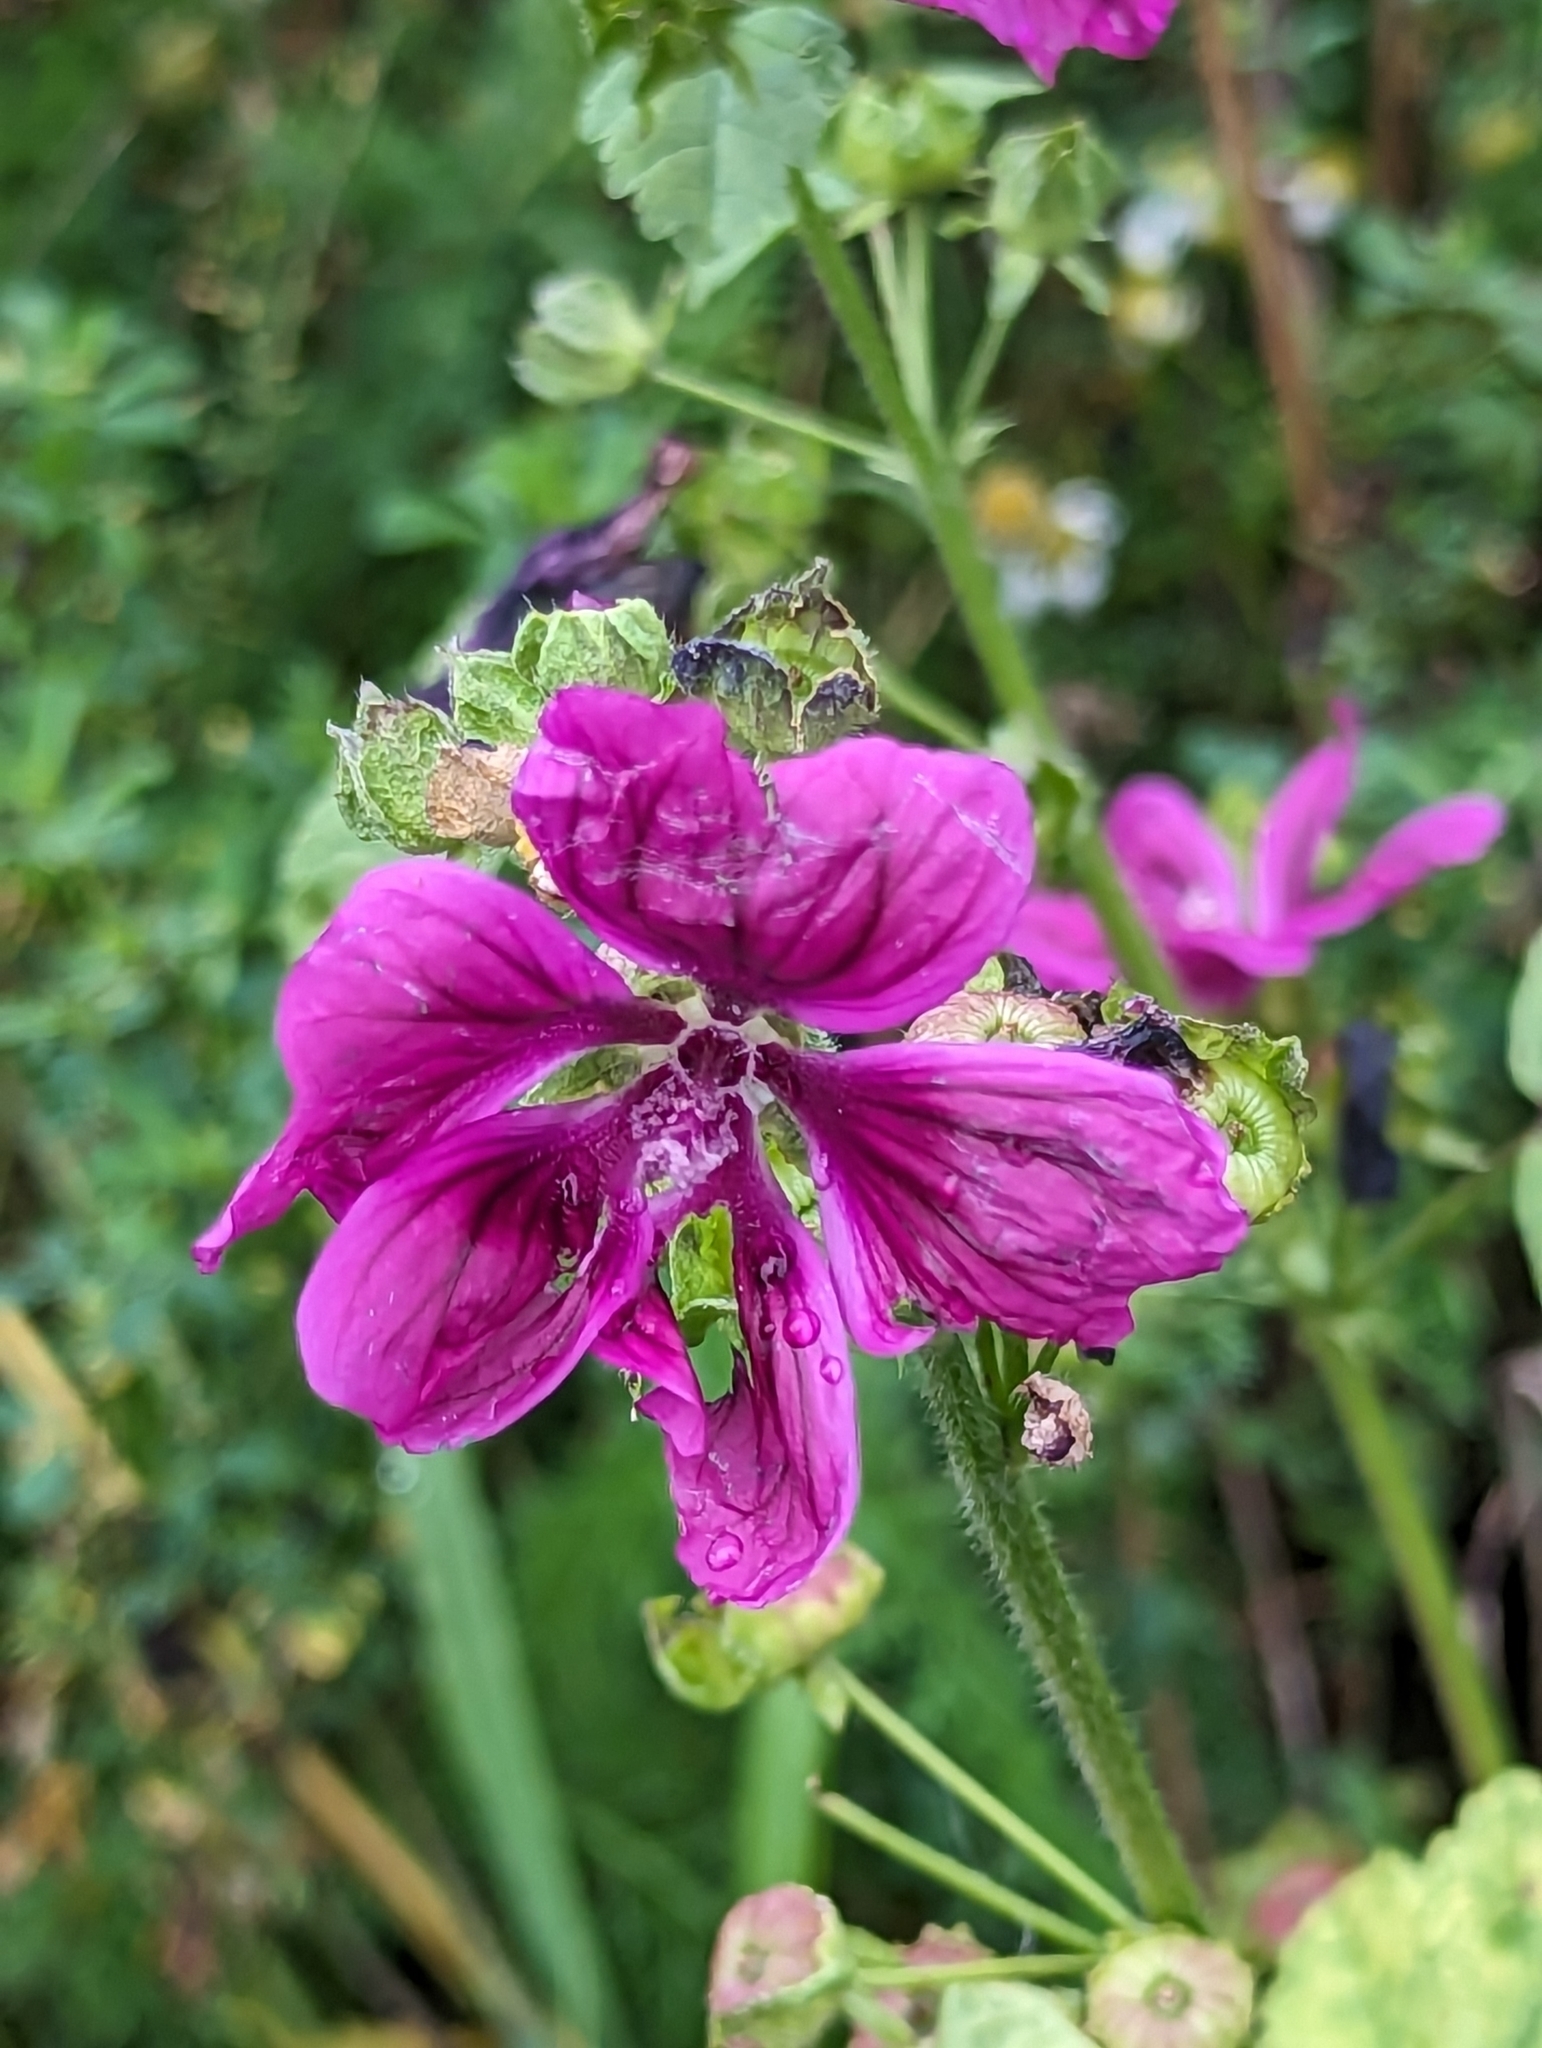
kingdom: Plantae
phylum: Tracheophyta
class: Magnoliopsida
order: Malvales
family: Malvaceae
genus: Malva
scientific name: Malva sylvestris
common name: Common mallow
